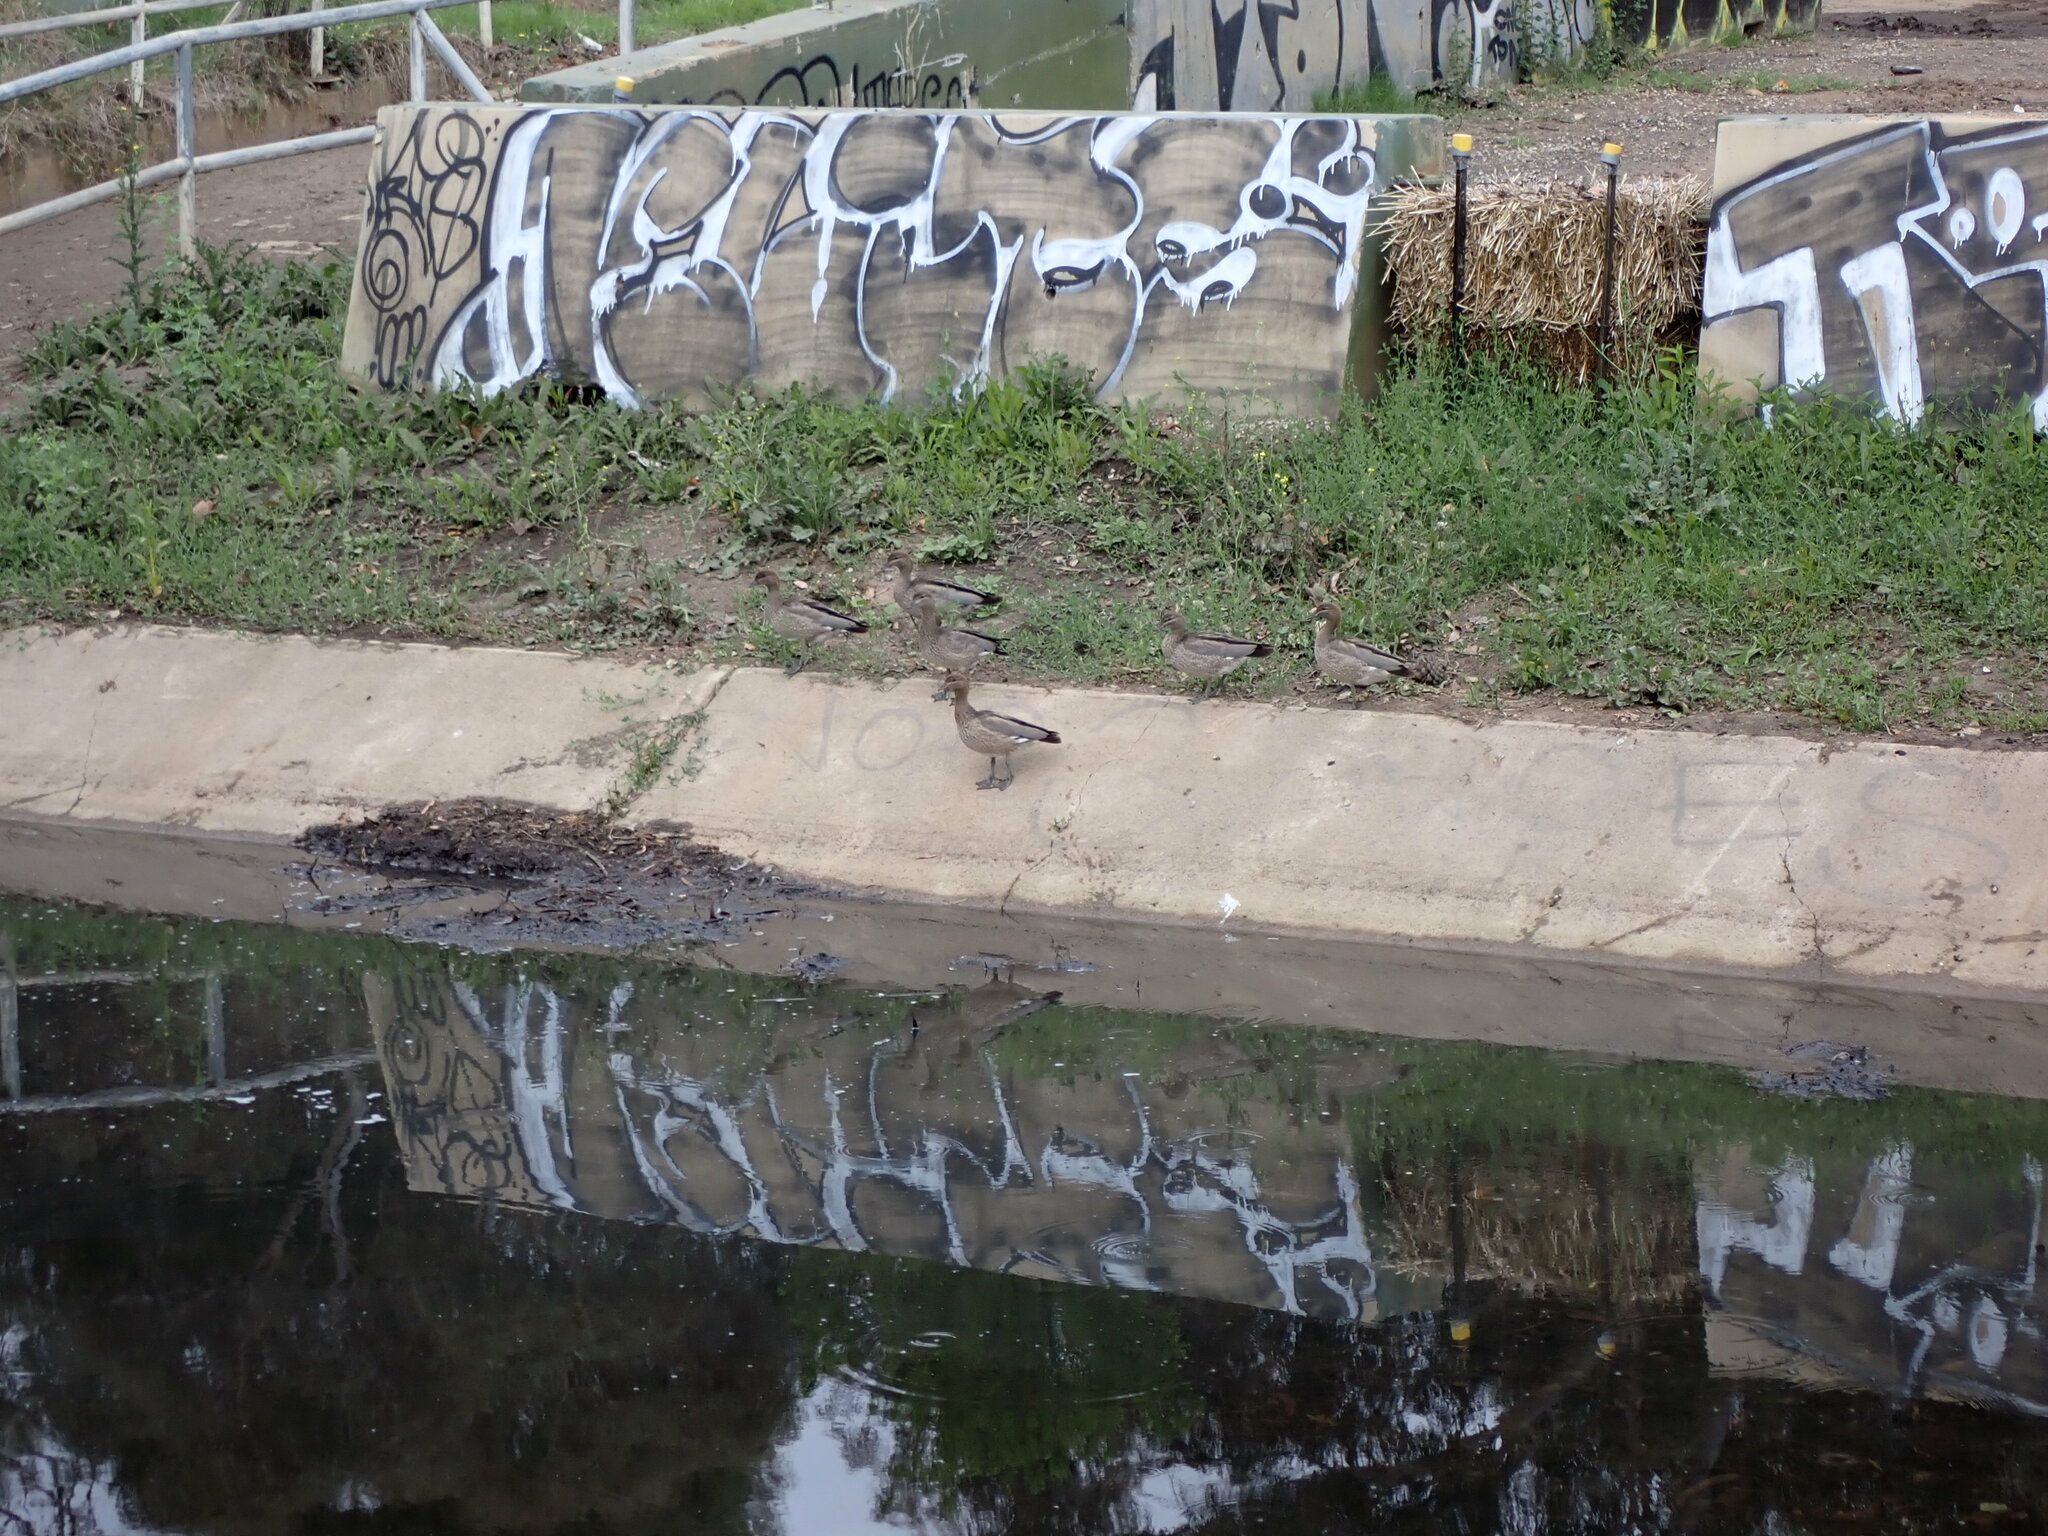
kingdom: Animalia
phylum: Chordata
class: Aves
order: Anseriformes
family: Anatidae
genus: Chenonetta
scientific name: Chenonetta jubata
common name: Maned duck
